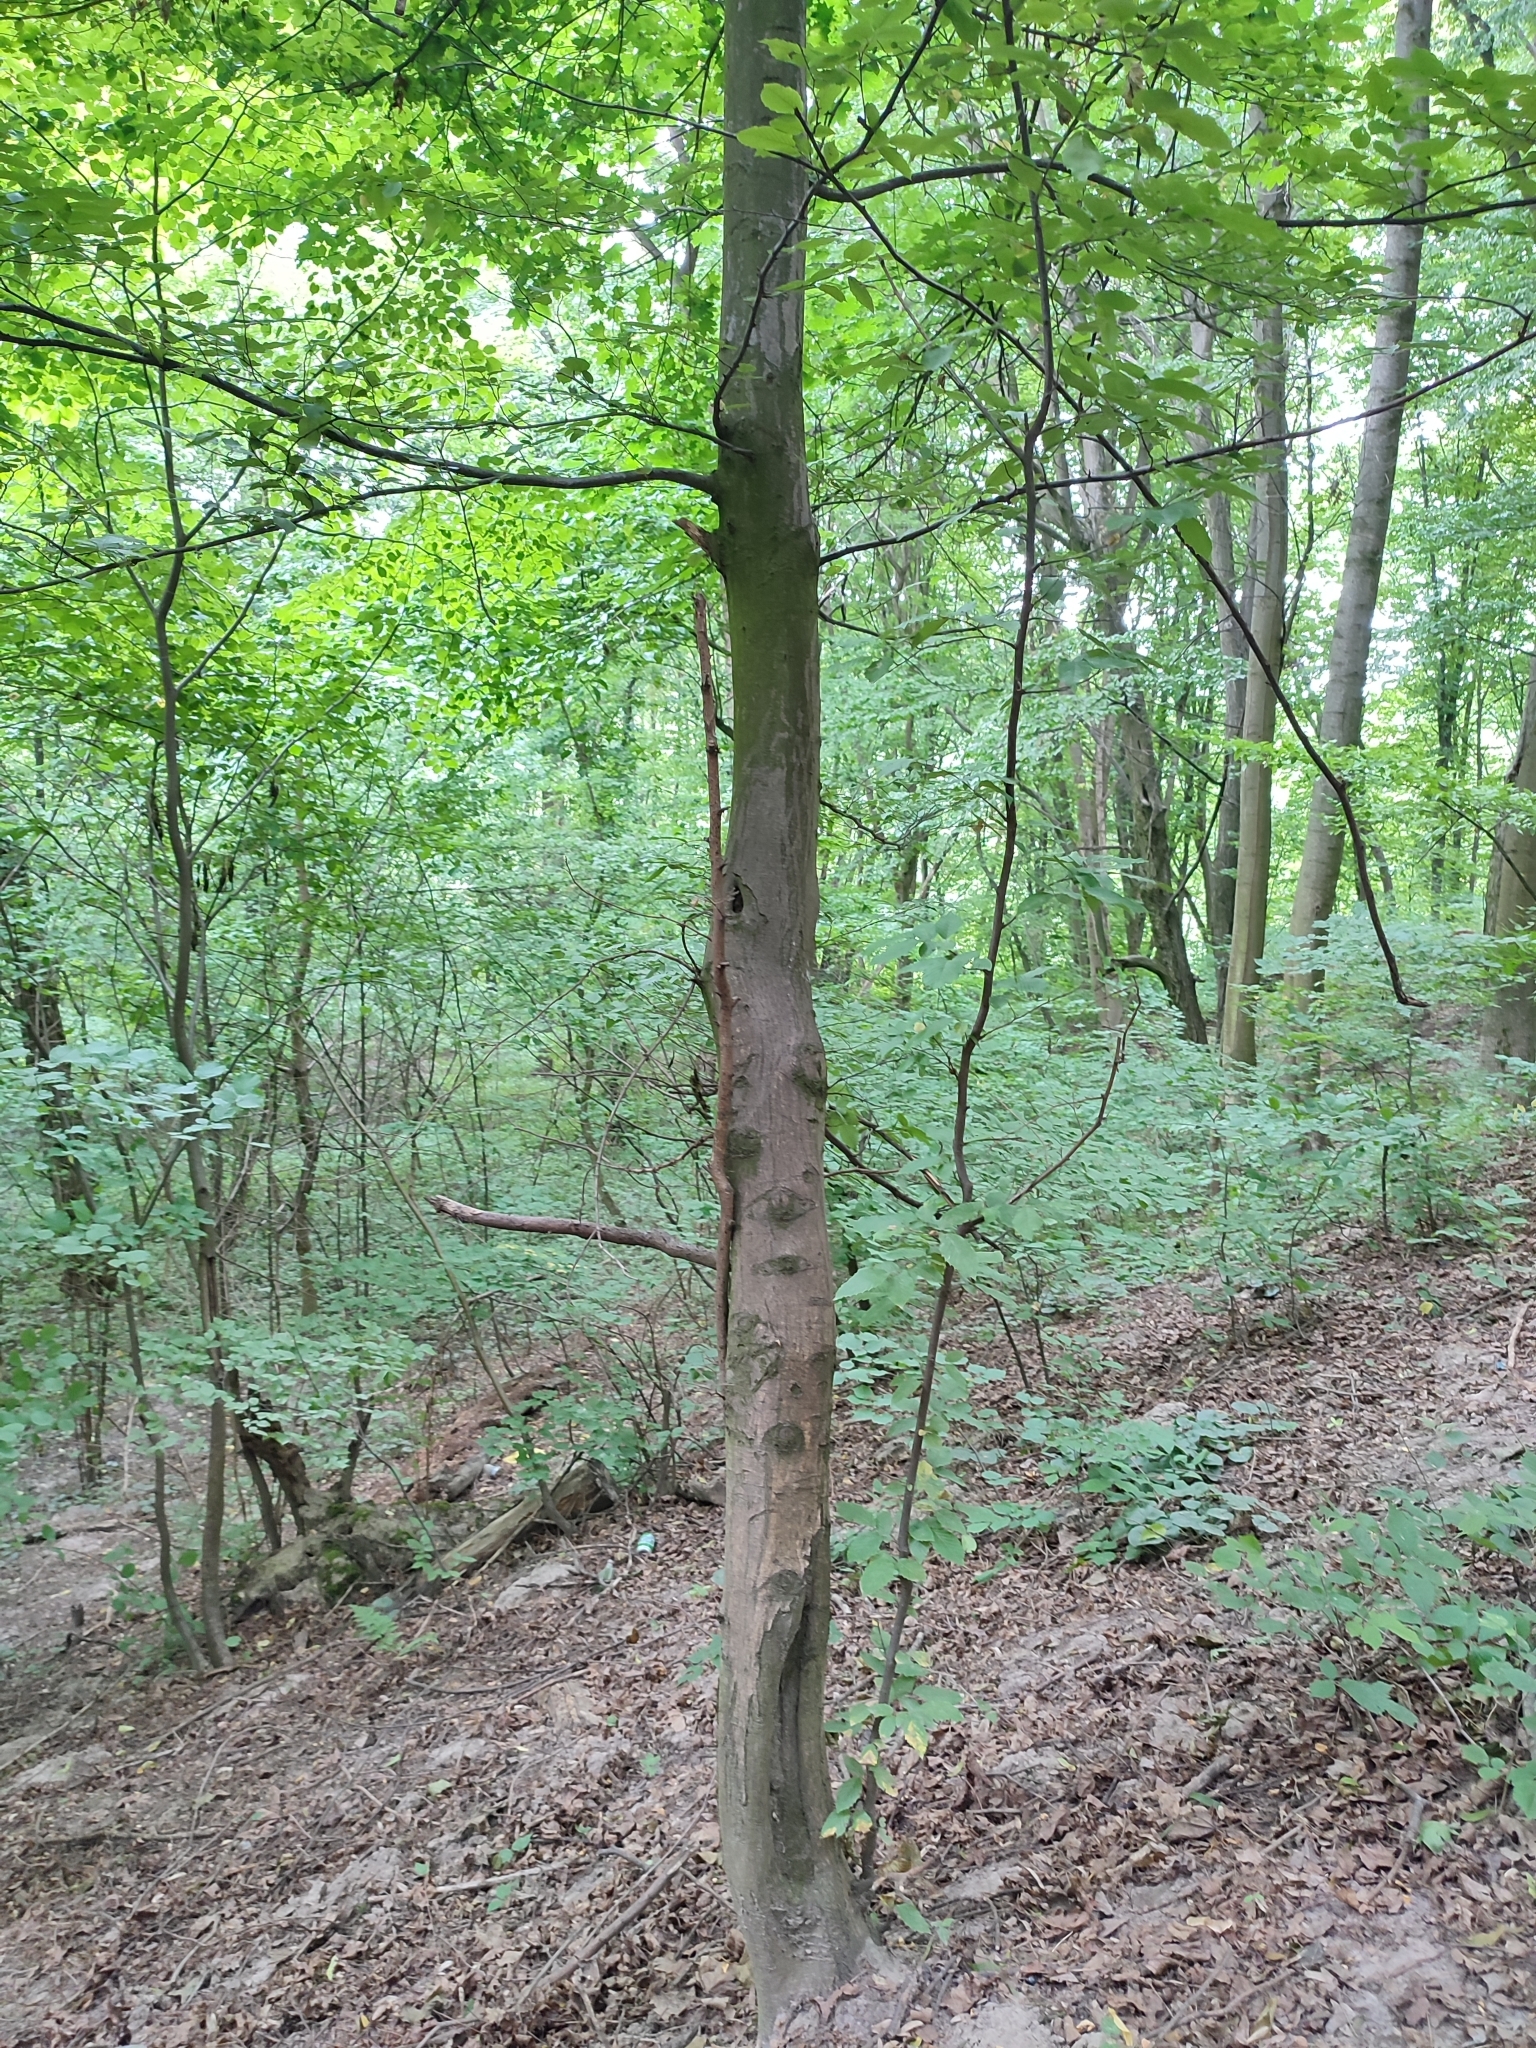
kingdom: Plantae
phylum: Tracheophyta
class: Magnoliopsida
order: Fagales
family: Betulaceae
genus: Carpinus
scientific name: Carpinus betulus
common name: Hornbeam
